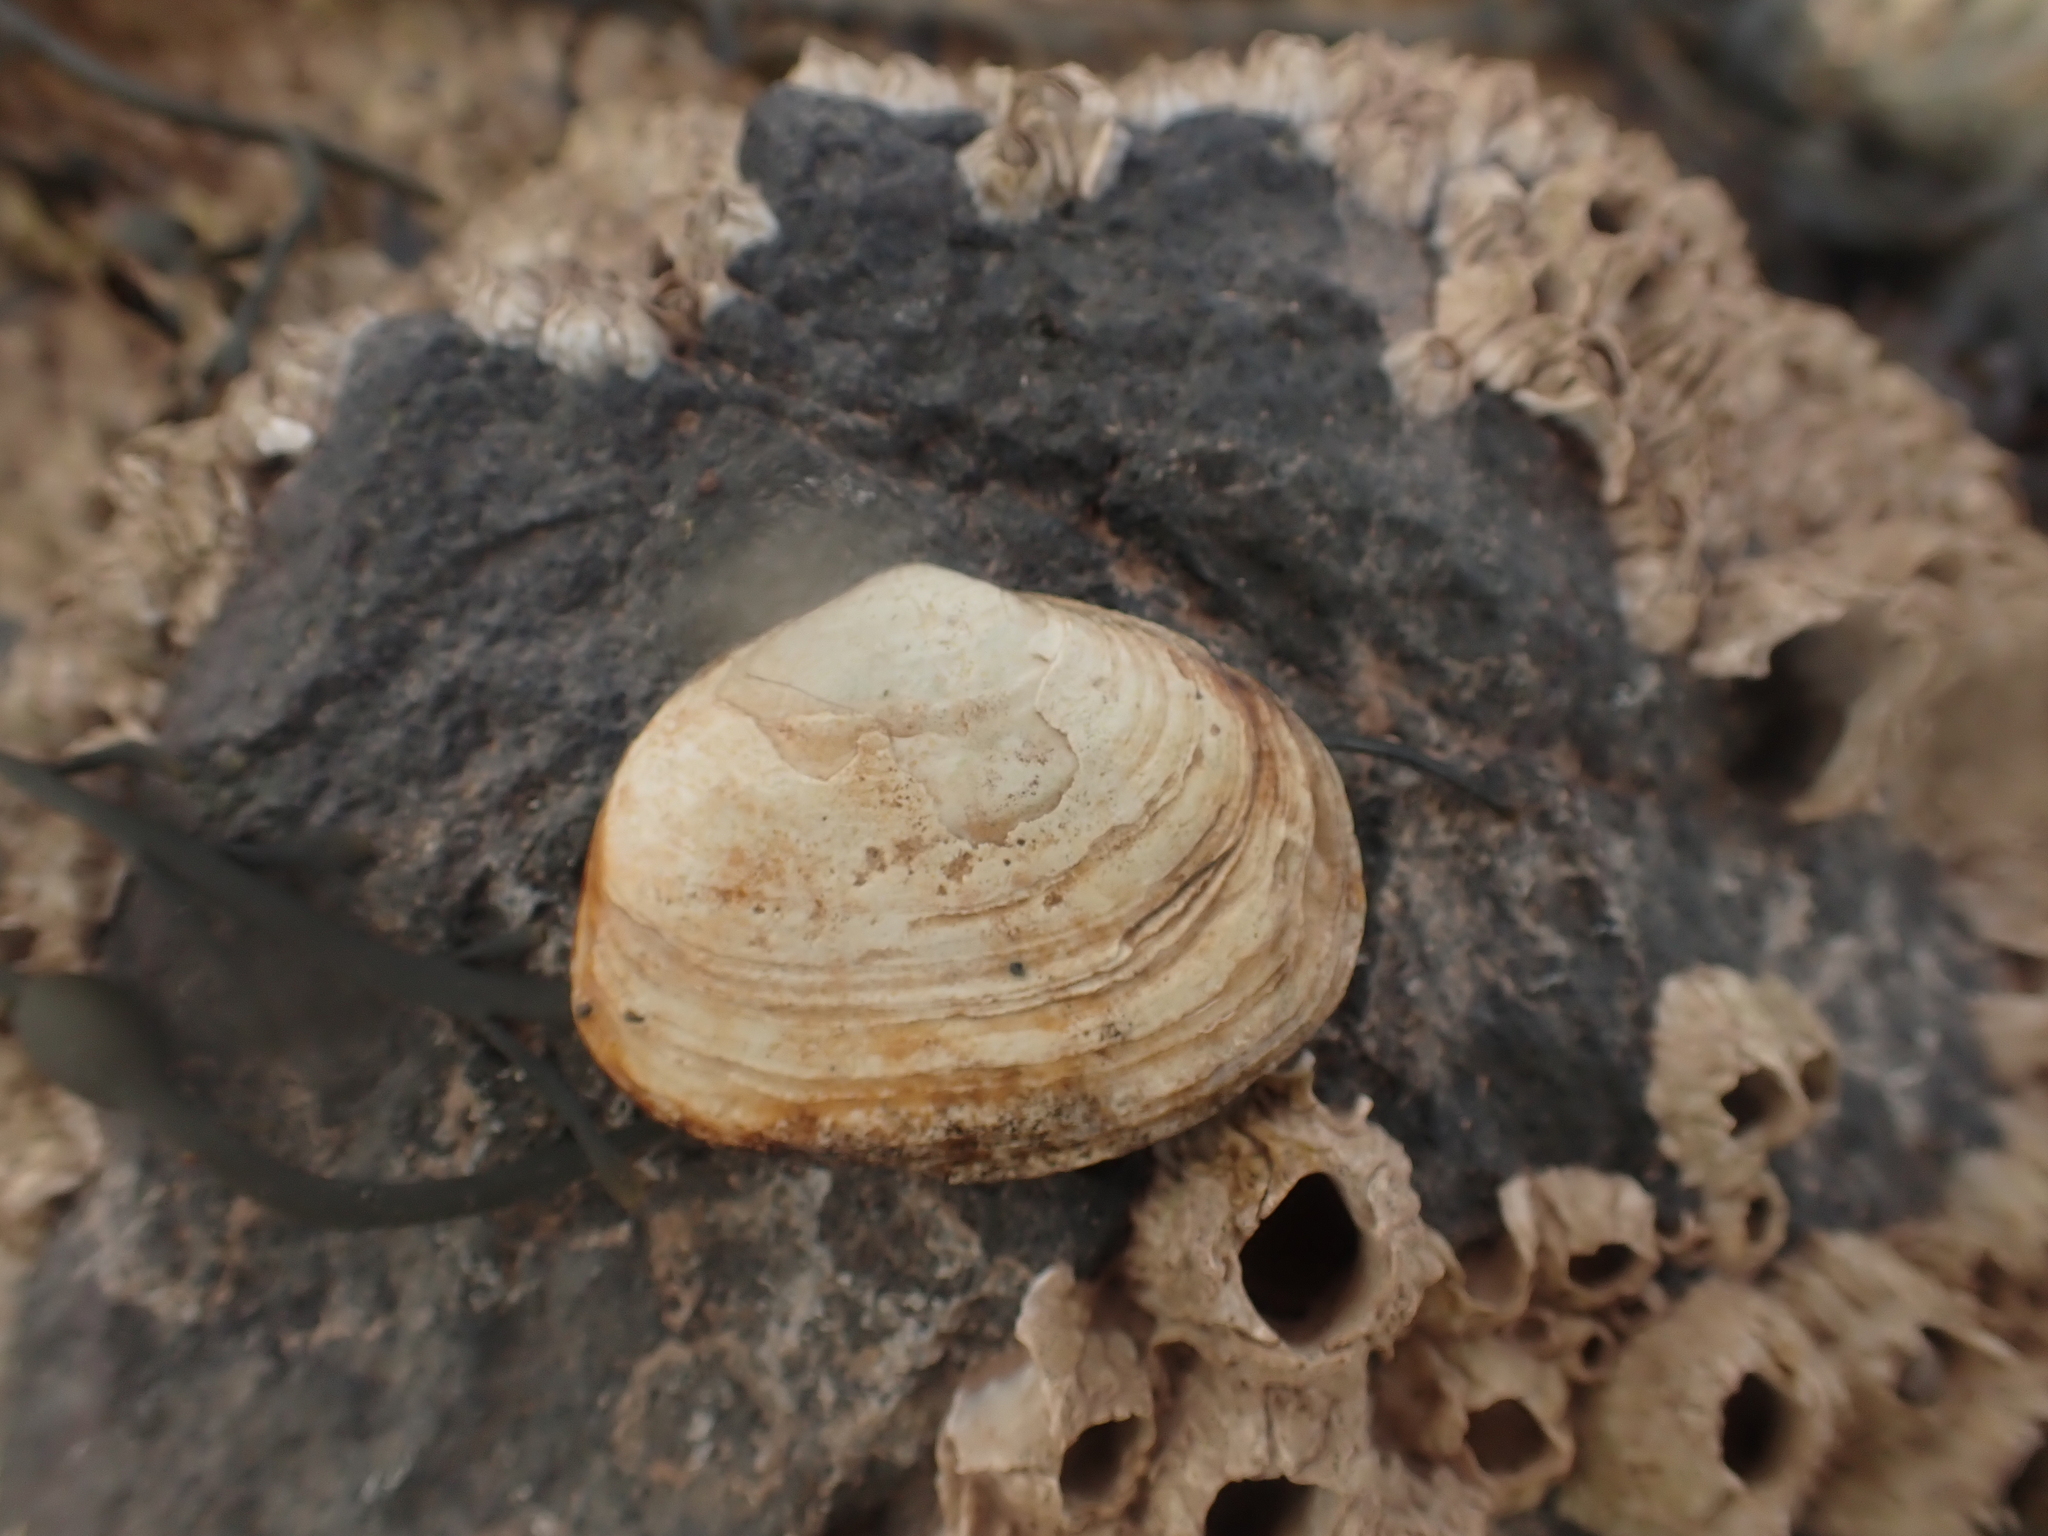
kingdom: Animalia
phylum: Mollusca
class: Bivalvia
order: Myida
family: Myidae
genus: Mya
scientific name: Mya truncata
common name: Blunt gaper
